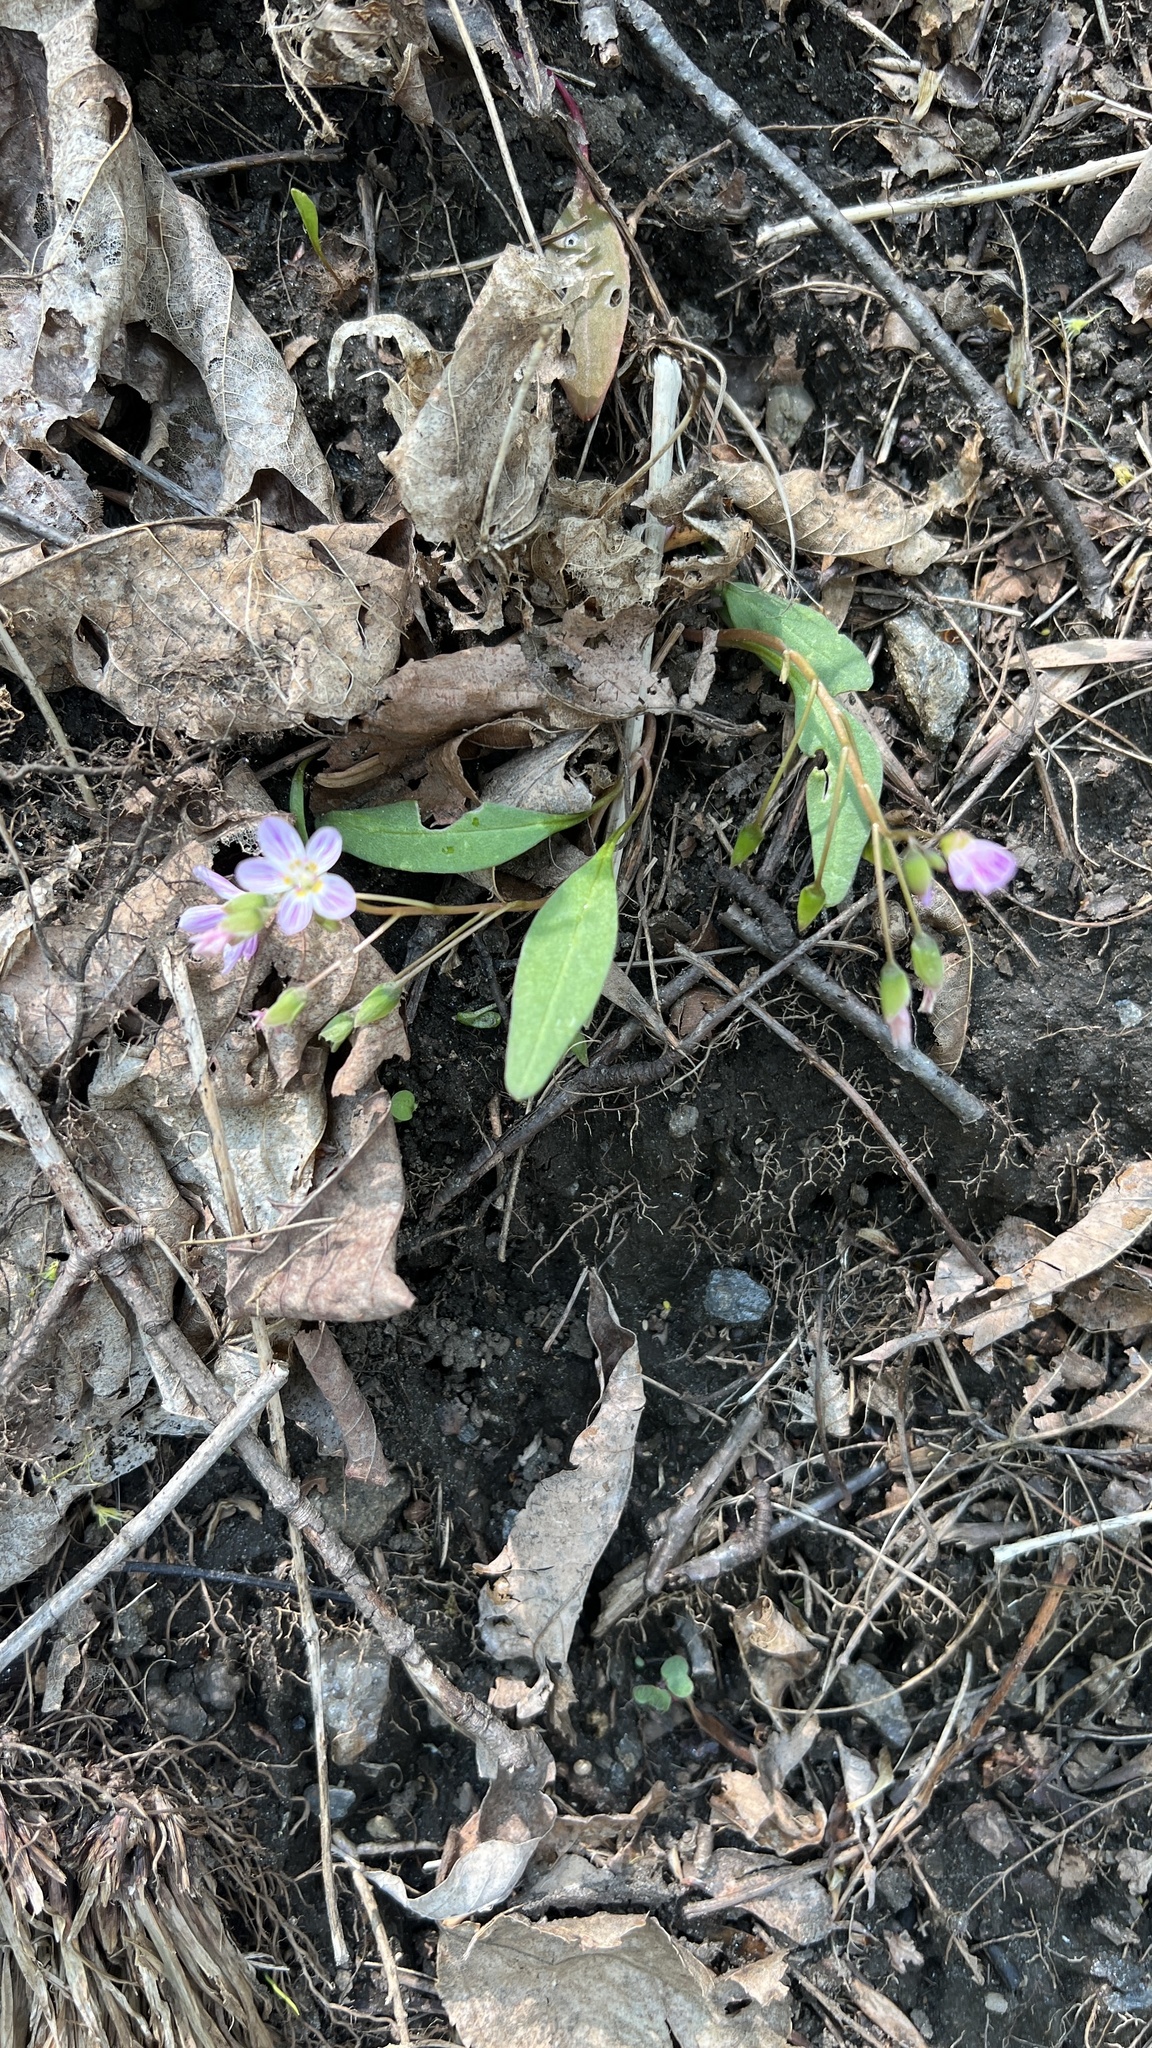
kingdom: Plantae
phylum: Tracheophyta
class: Magnoliopsida
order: Caryophyllales
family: Montiaceae
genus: Claytonia
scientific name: Claytonia caroliniana
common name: Carolina spring beauty
